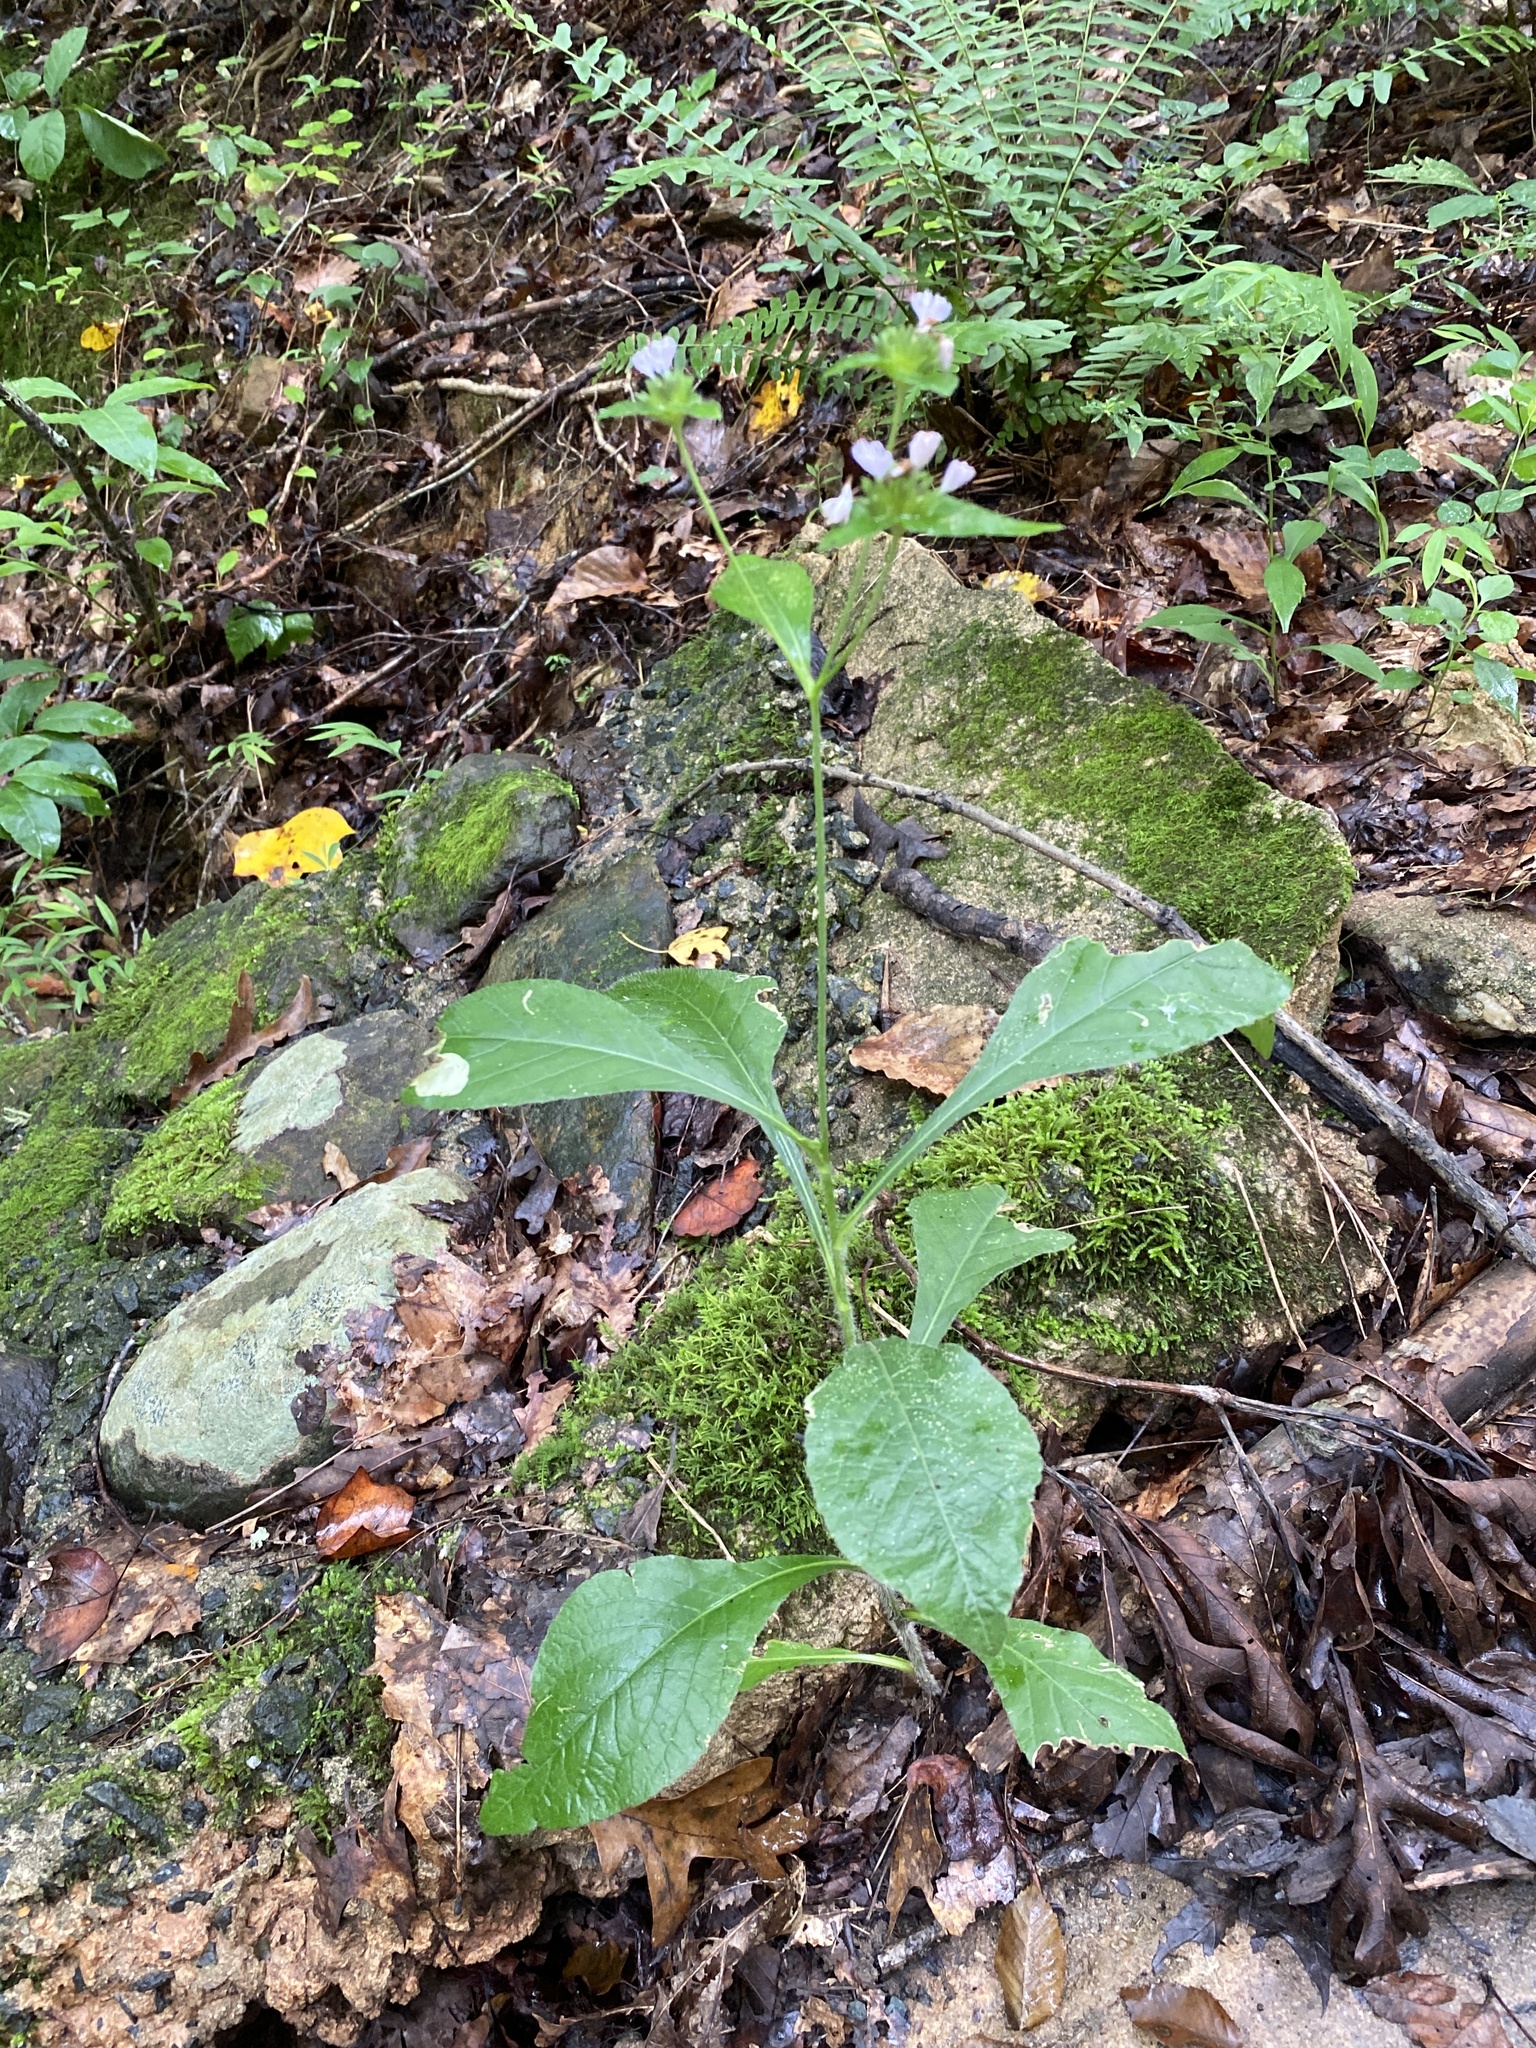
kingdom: Plantae
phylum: Tracheophyta
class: Magnoliopsida
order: Asterales
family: Asteraceae
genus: Elephantopus
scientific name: Elephantopus carolinianus
